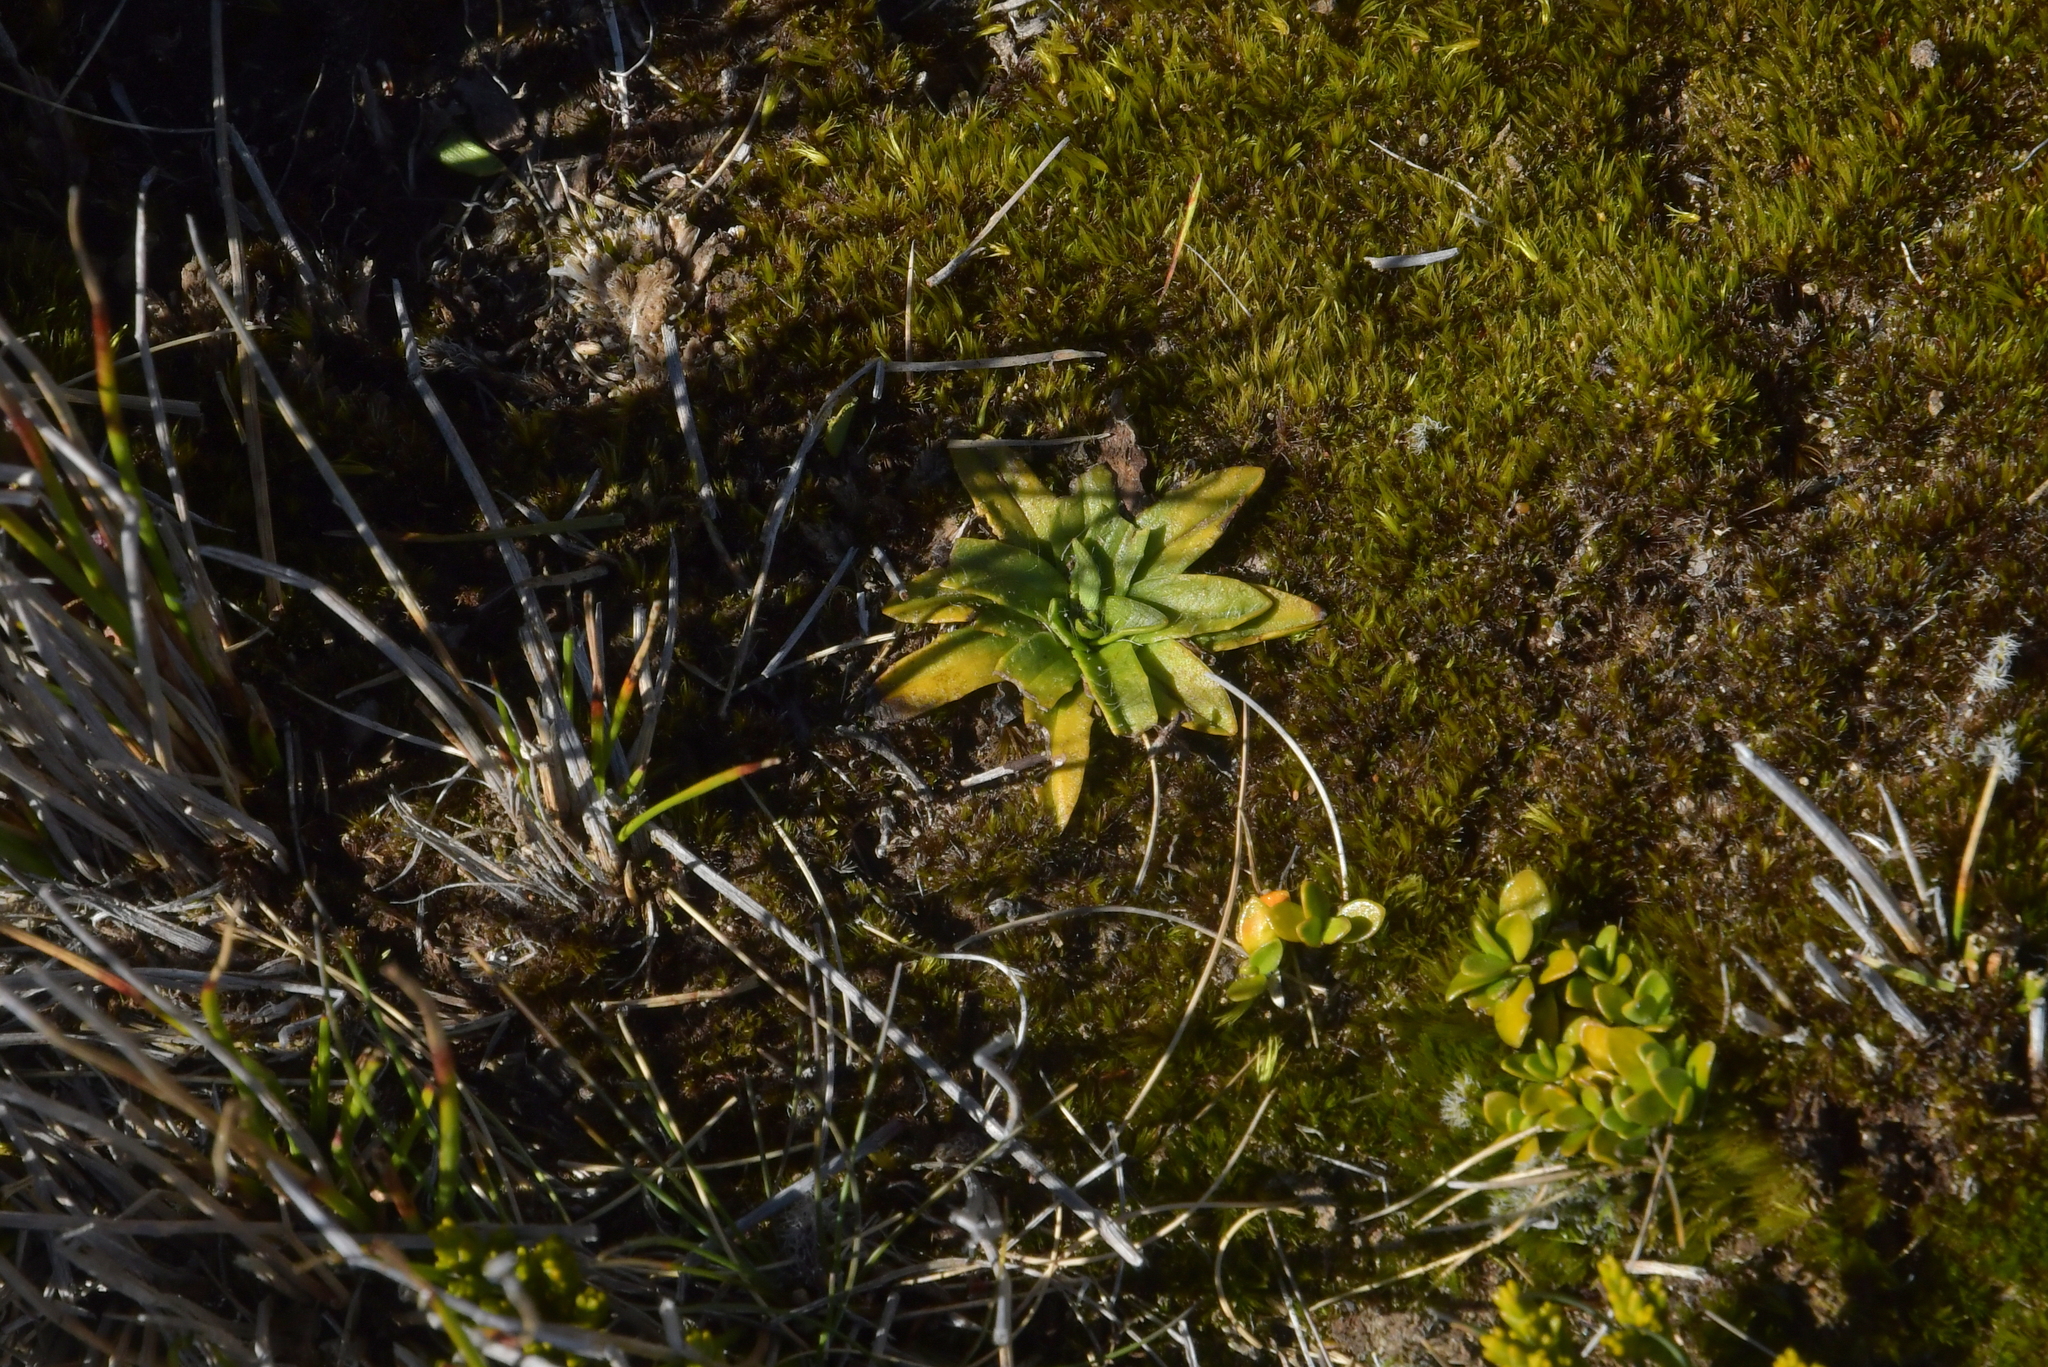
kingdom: Plantae
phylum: Tracheophyta
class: Magnoliopsida
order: Lamiales
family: Plantaginaceae
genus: Plantago
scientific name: Plantago unibracteata
